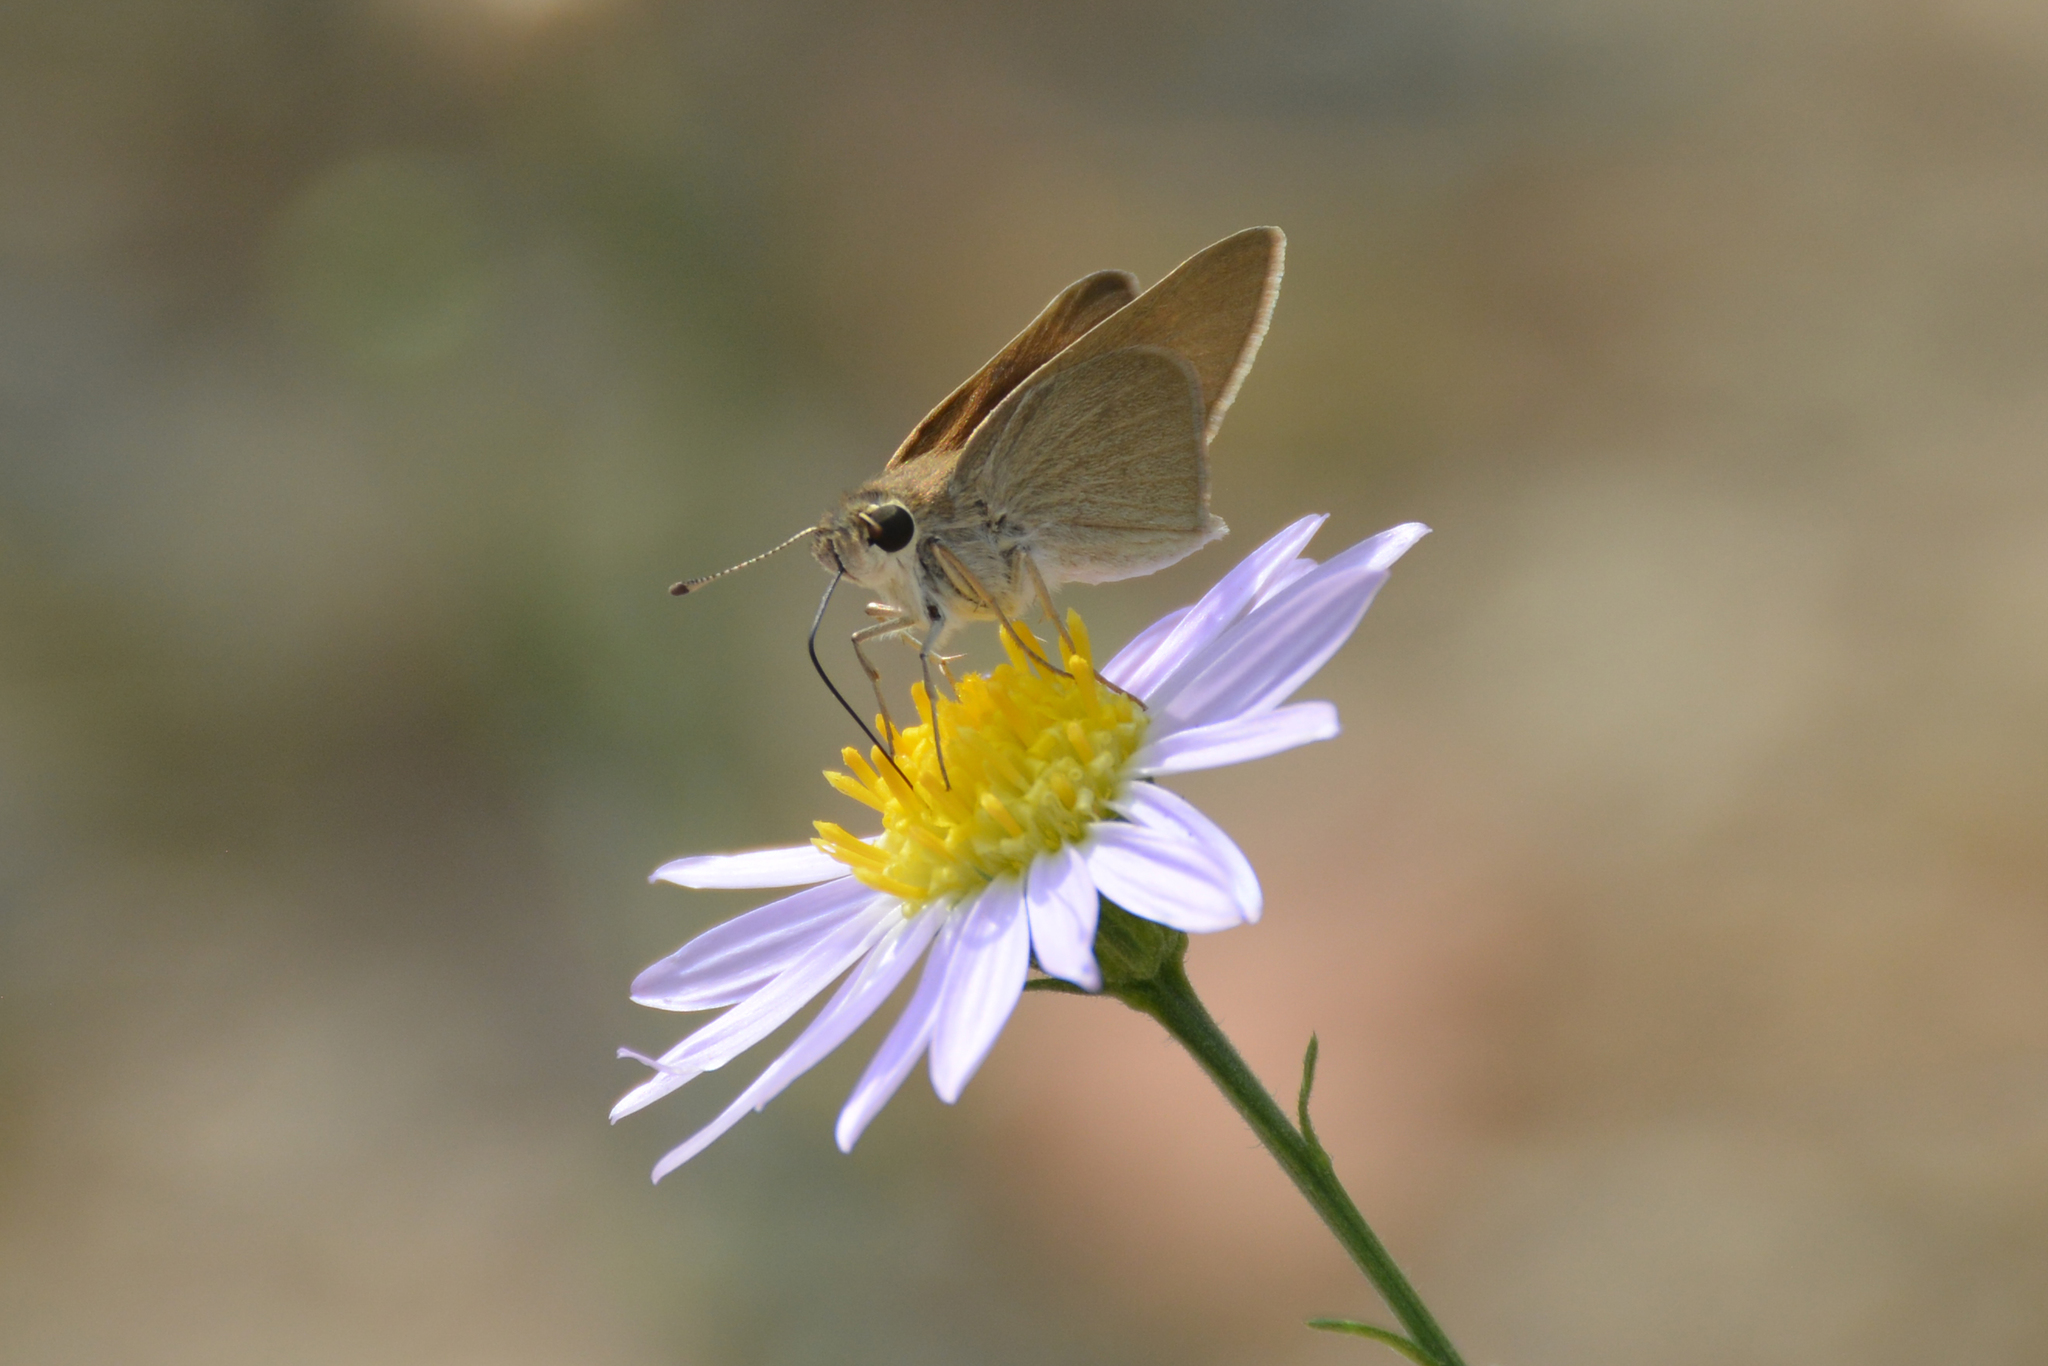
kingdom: Animalia
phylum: Arthropoda
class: Insecta
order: Lepidoptera
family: Hesperiidae
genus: Gegenes
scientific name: Gegenes nostrodamus
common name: Mediterranean skipper
